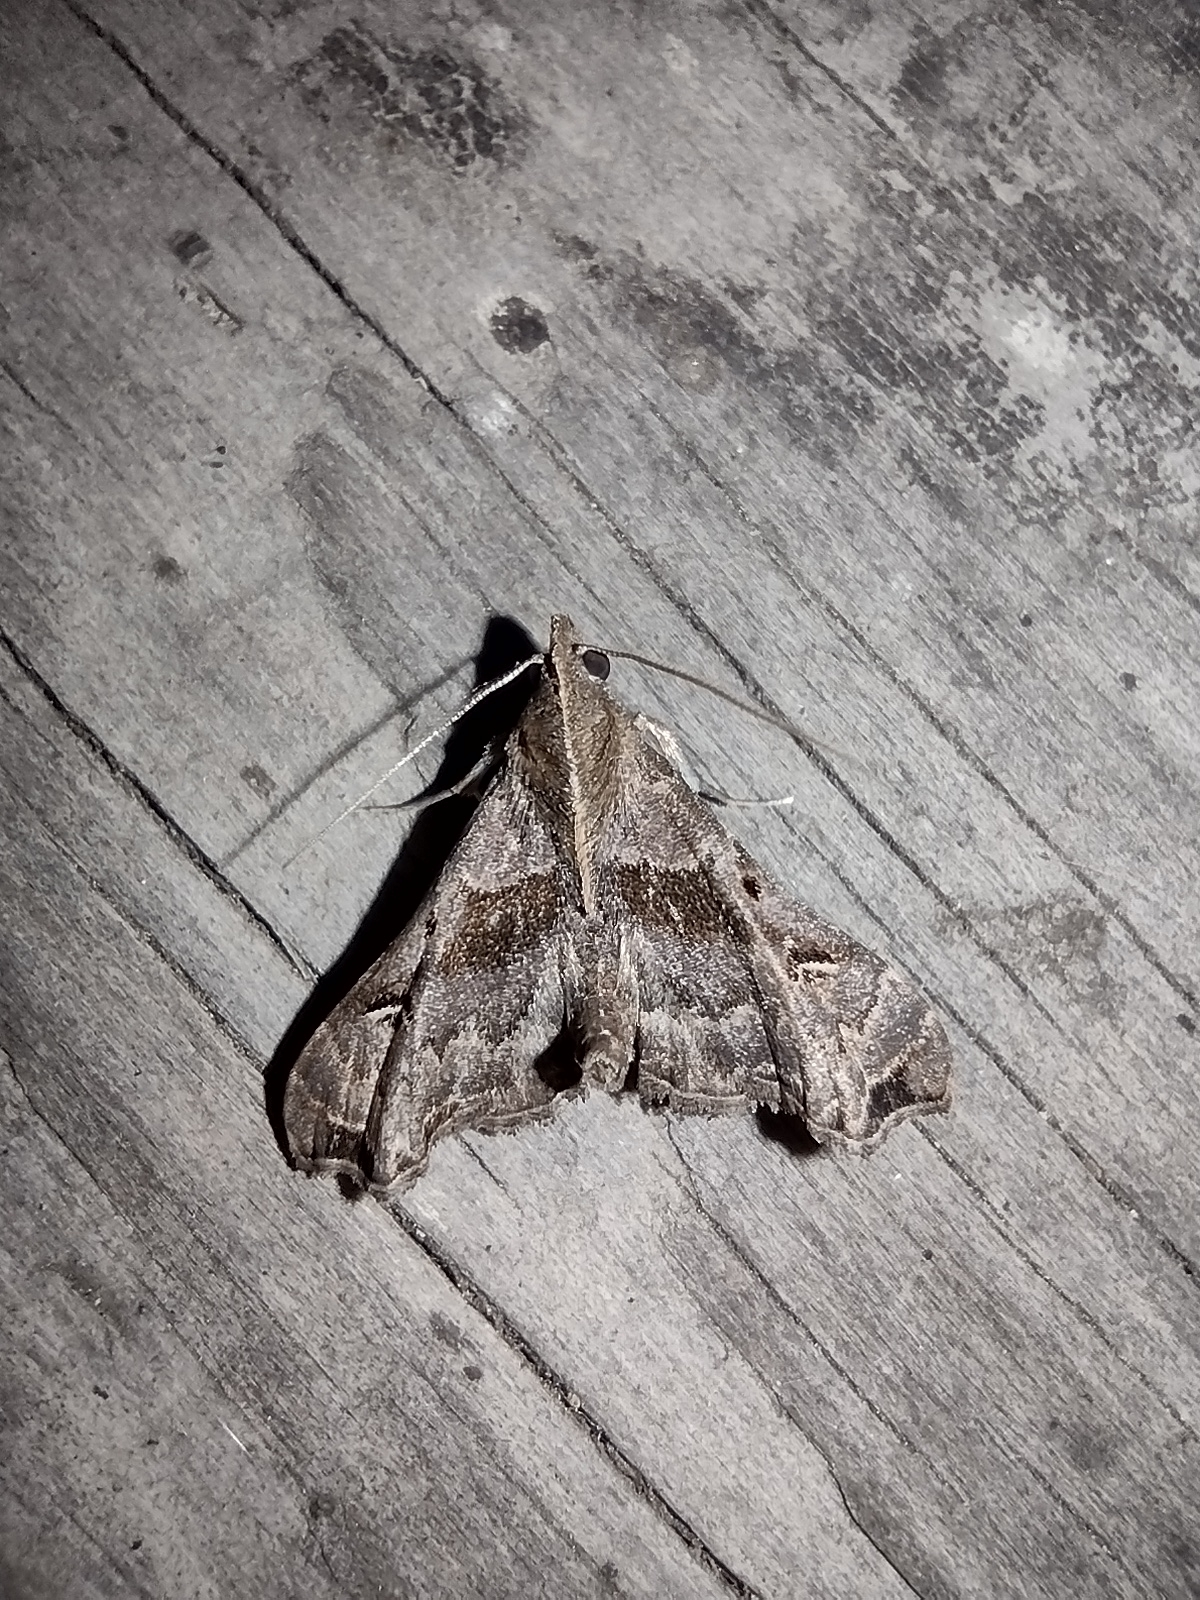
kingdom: Animalia
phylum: Arthropoda
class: Insecta
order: Lepidoptera
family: Erebidae
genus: Palthis
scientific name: Palthis asopialis
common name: Faint-spotted palthis moth
